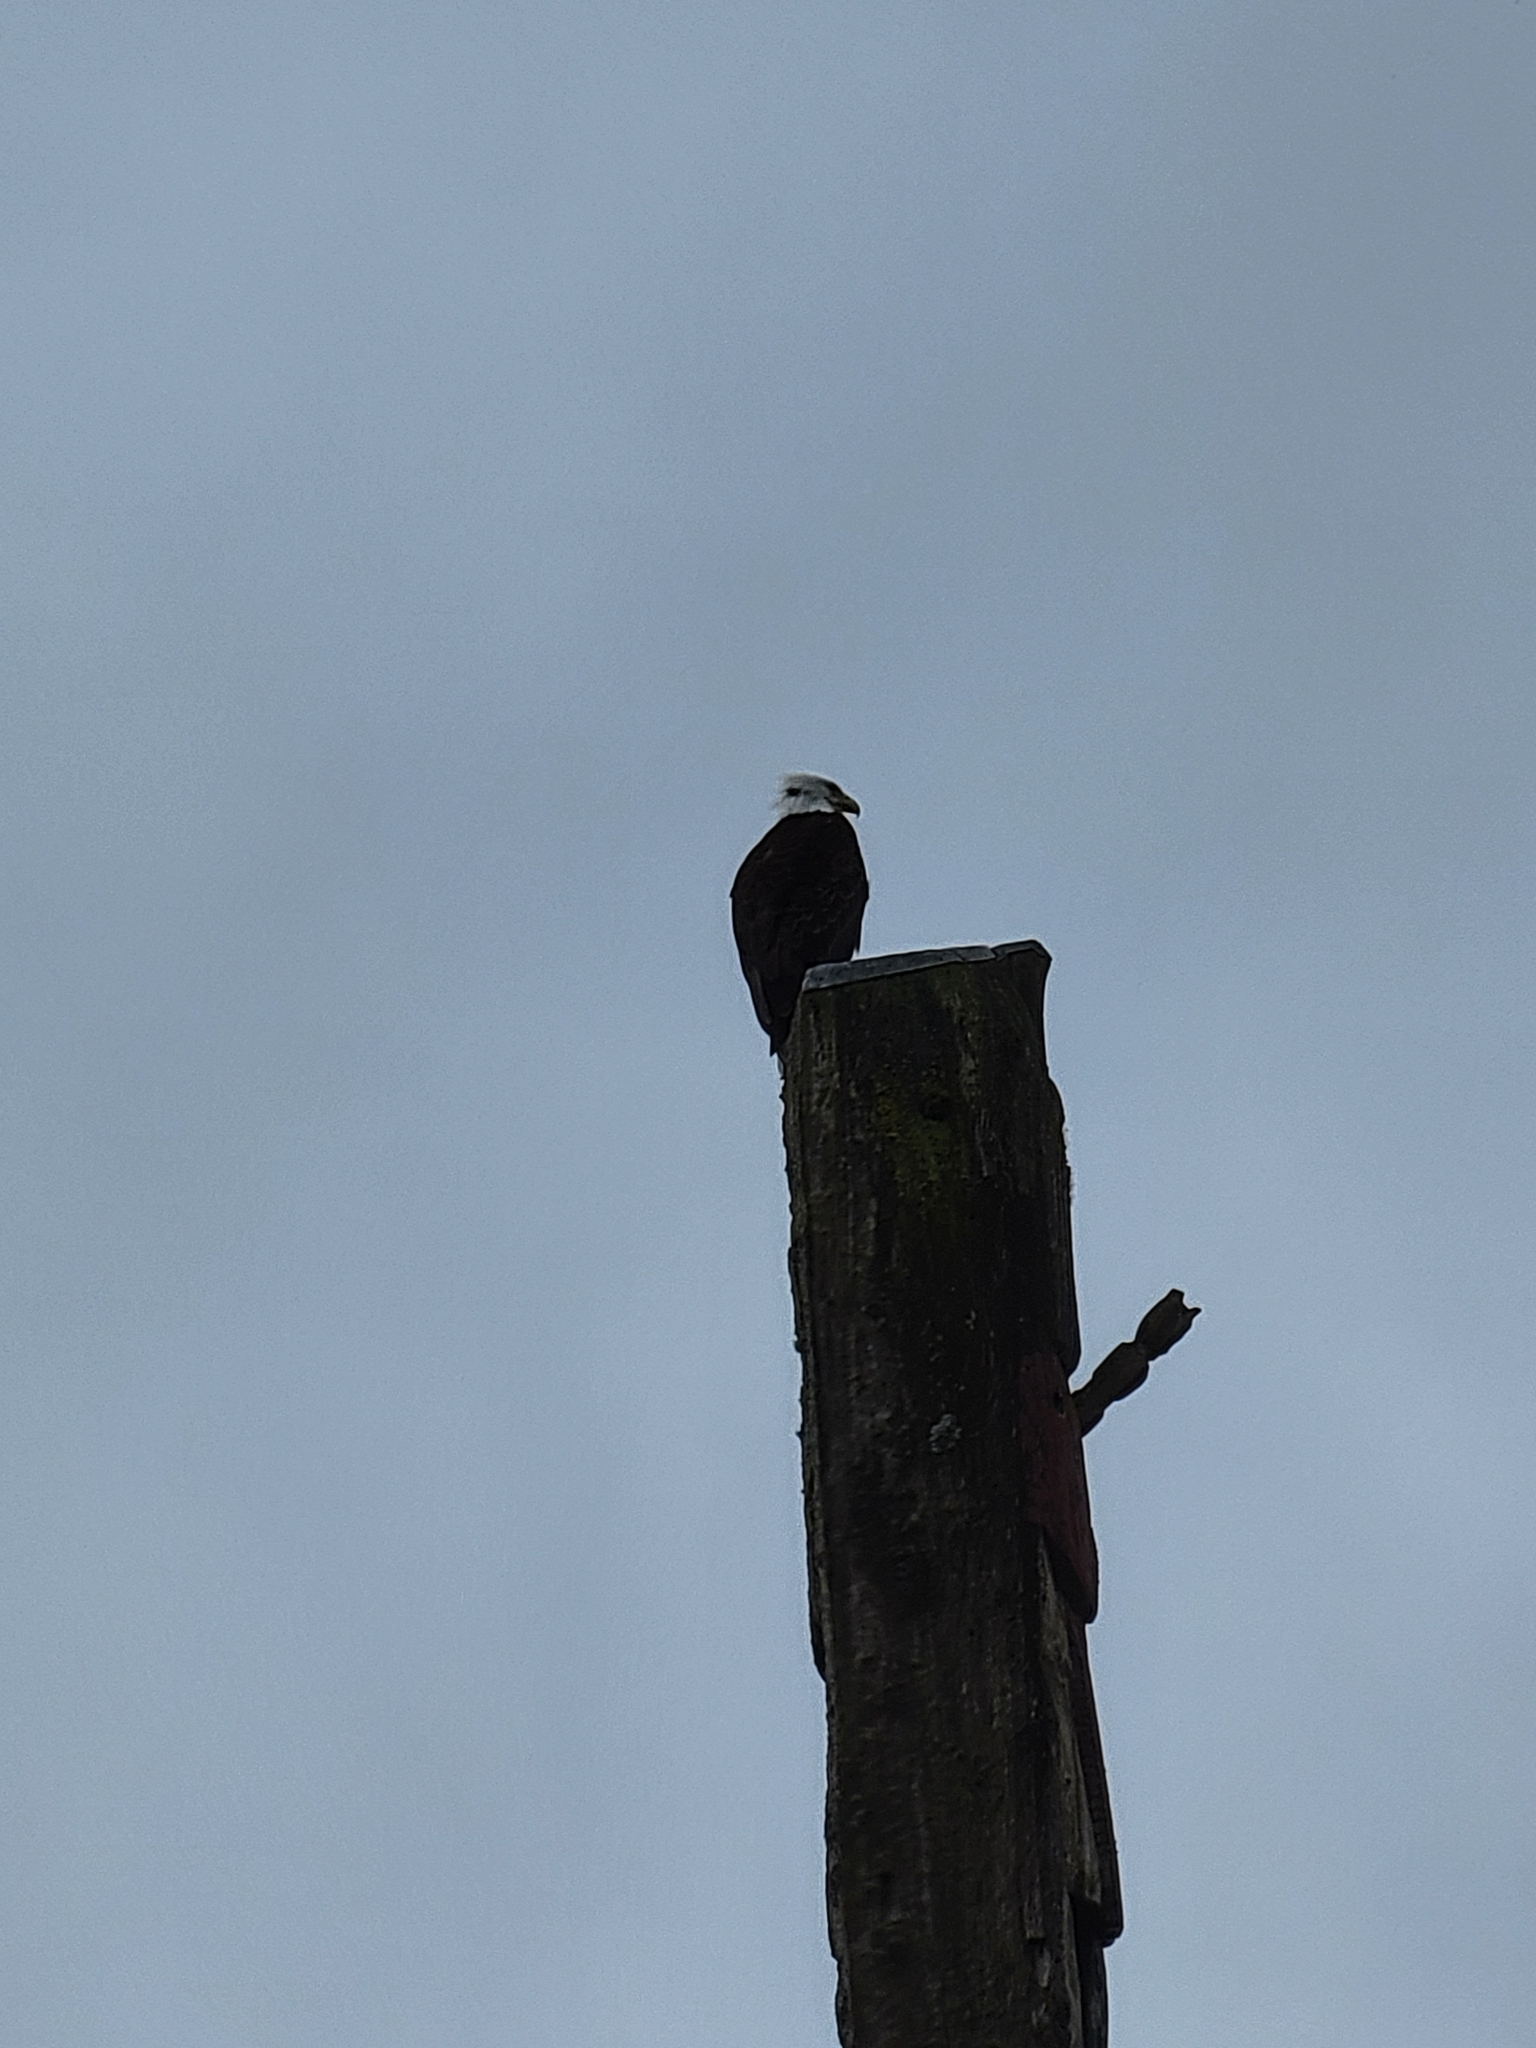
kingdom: Animalia
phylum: Chordata
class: Aves
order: Accipitriformes
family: Accipitridae
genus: Haliaeetus
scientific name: Haliaeetus leucocephalus
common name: Bald eagle
